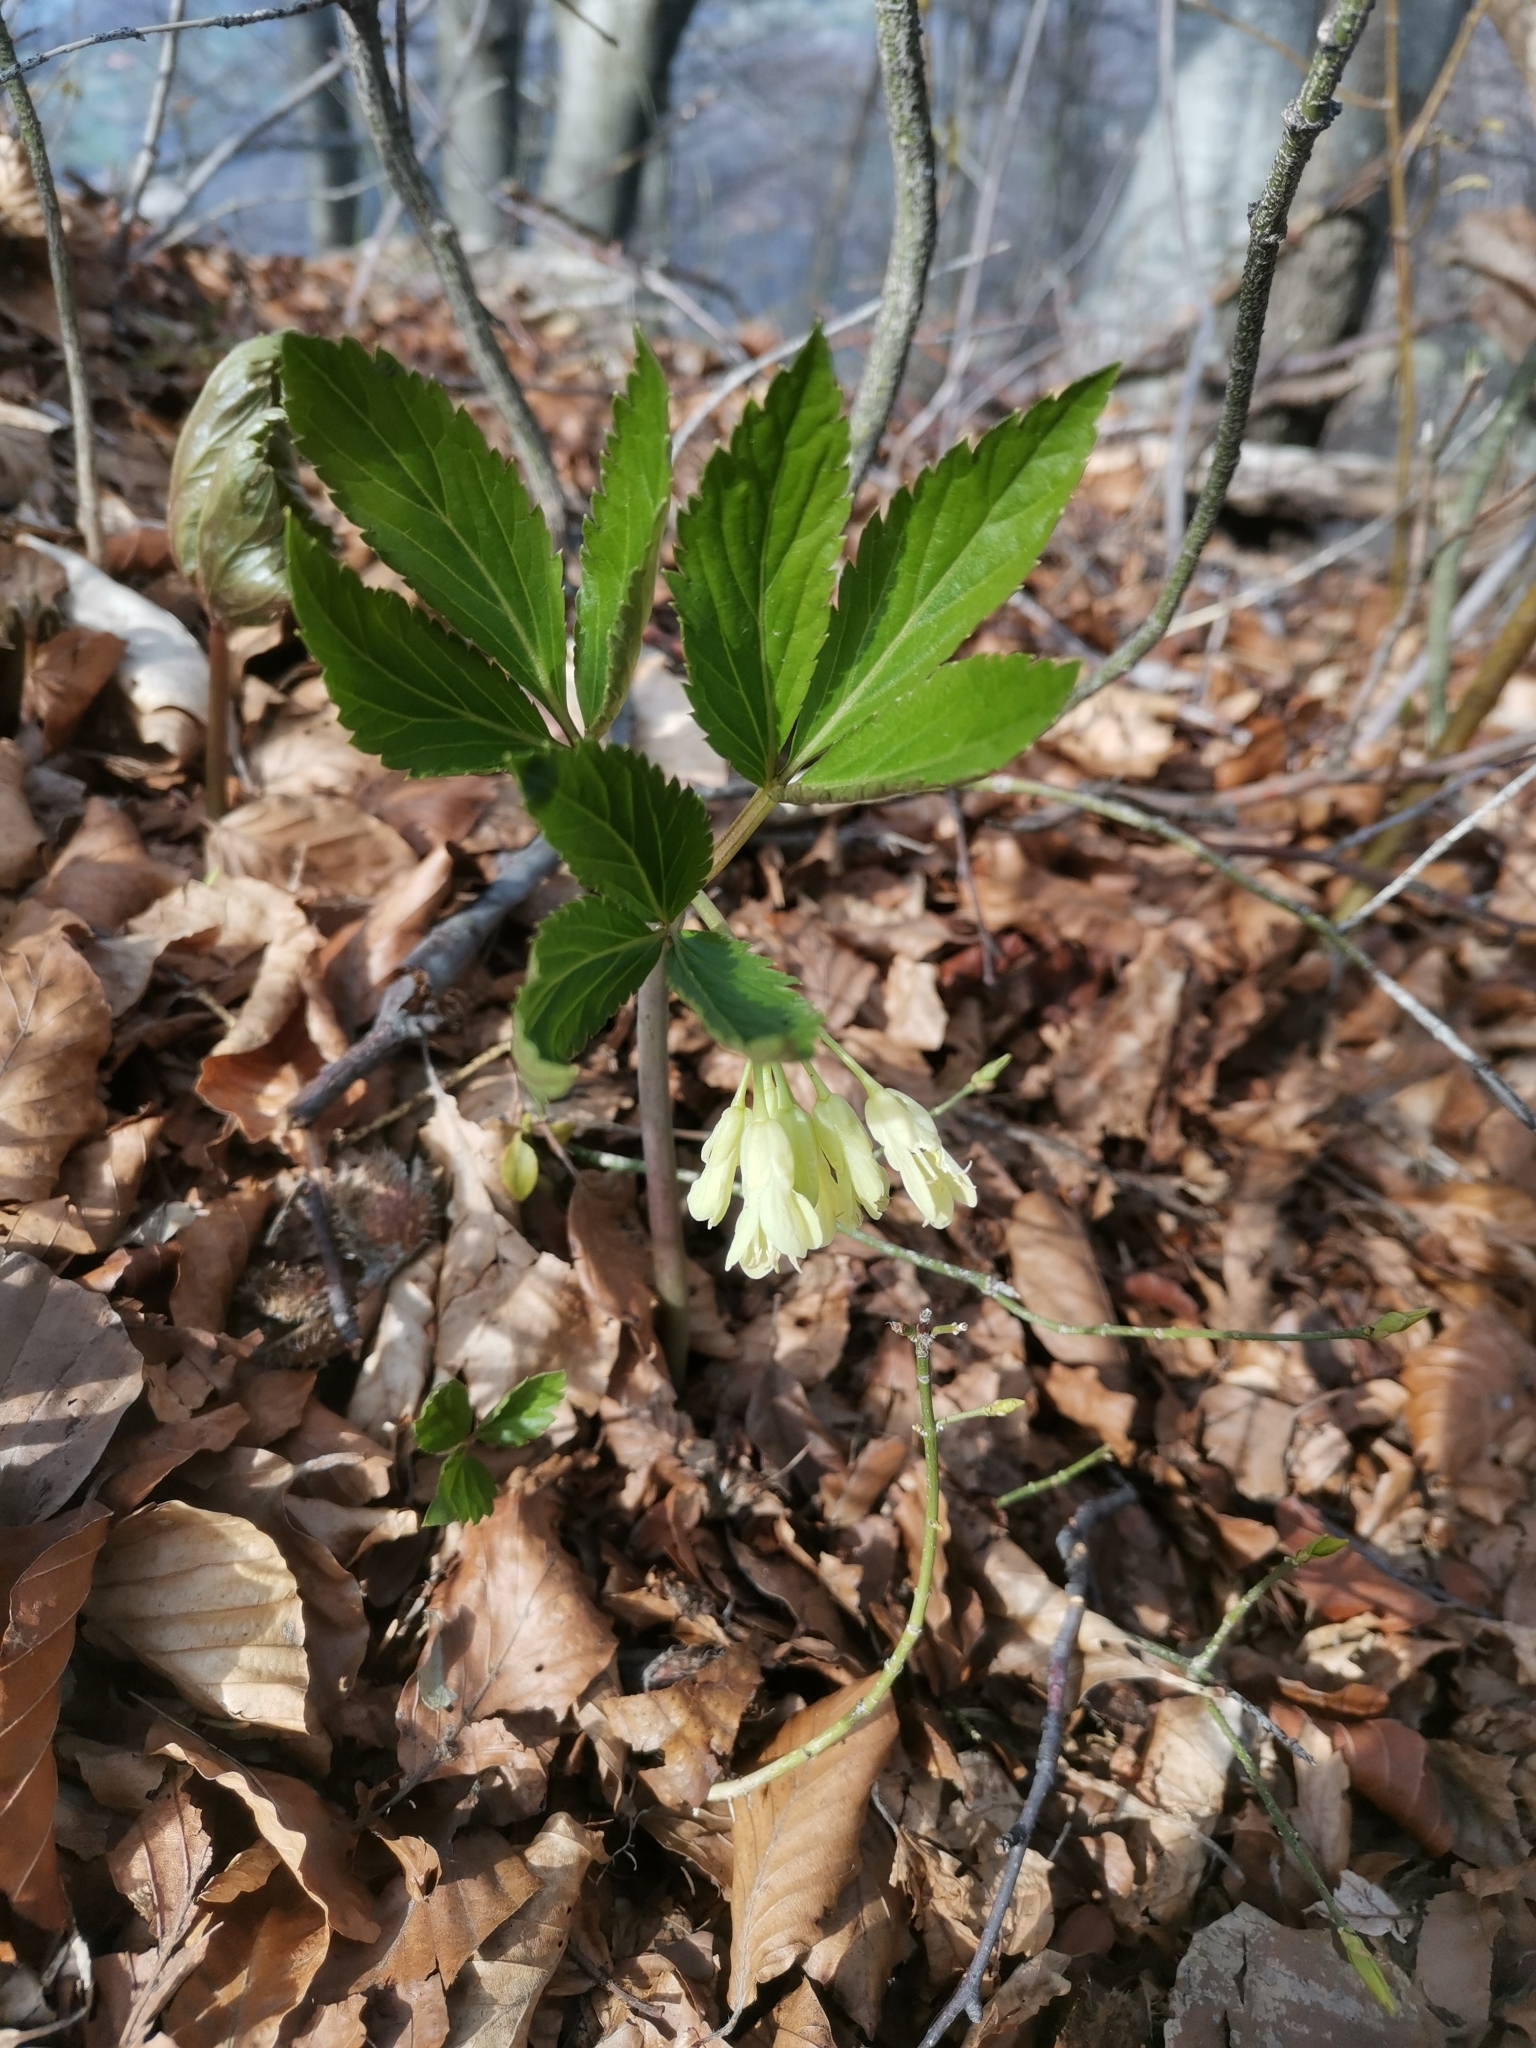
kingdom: Plantae
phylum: Tracheophyta
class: Magnoliopsida
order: Brassicales
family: Brassicaceae
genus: Cardamine
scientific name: Cardamine enneaphyllos
